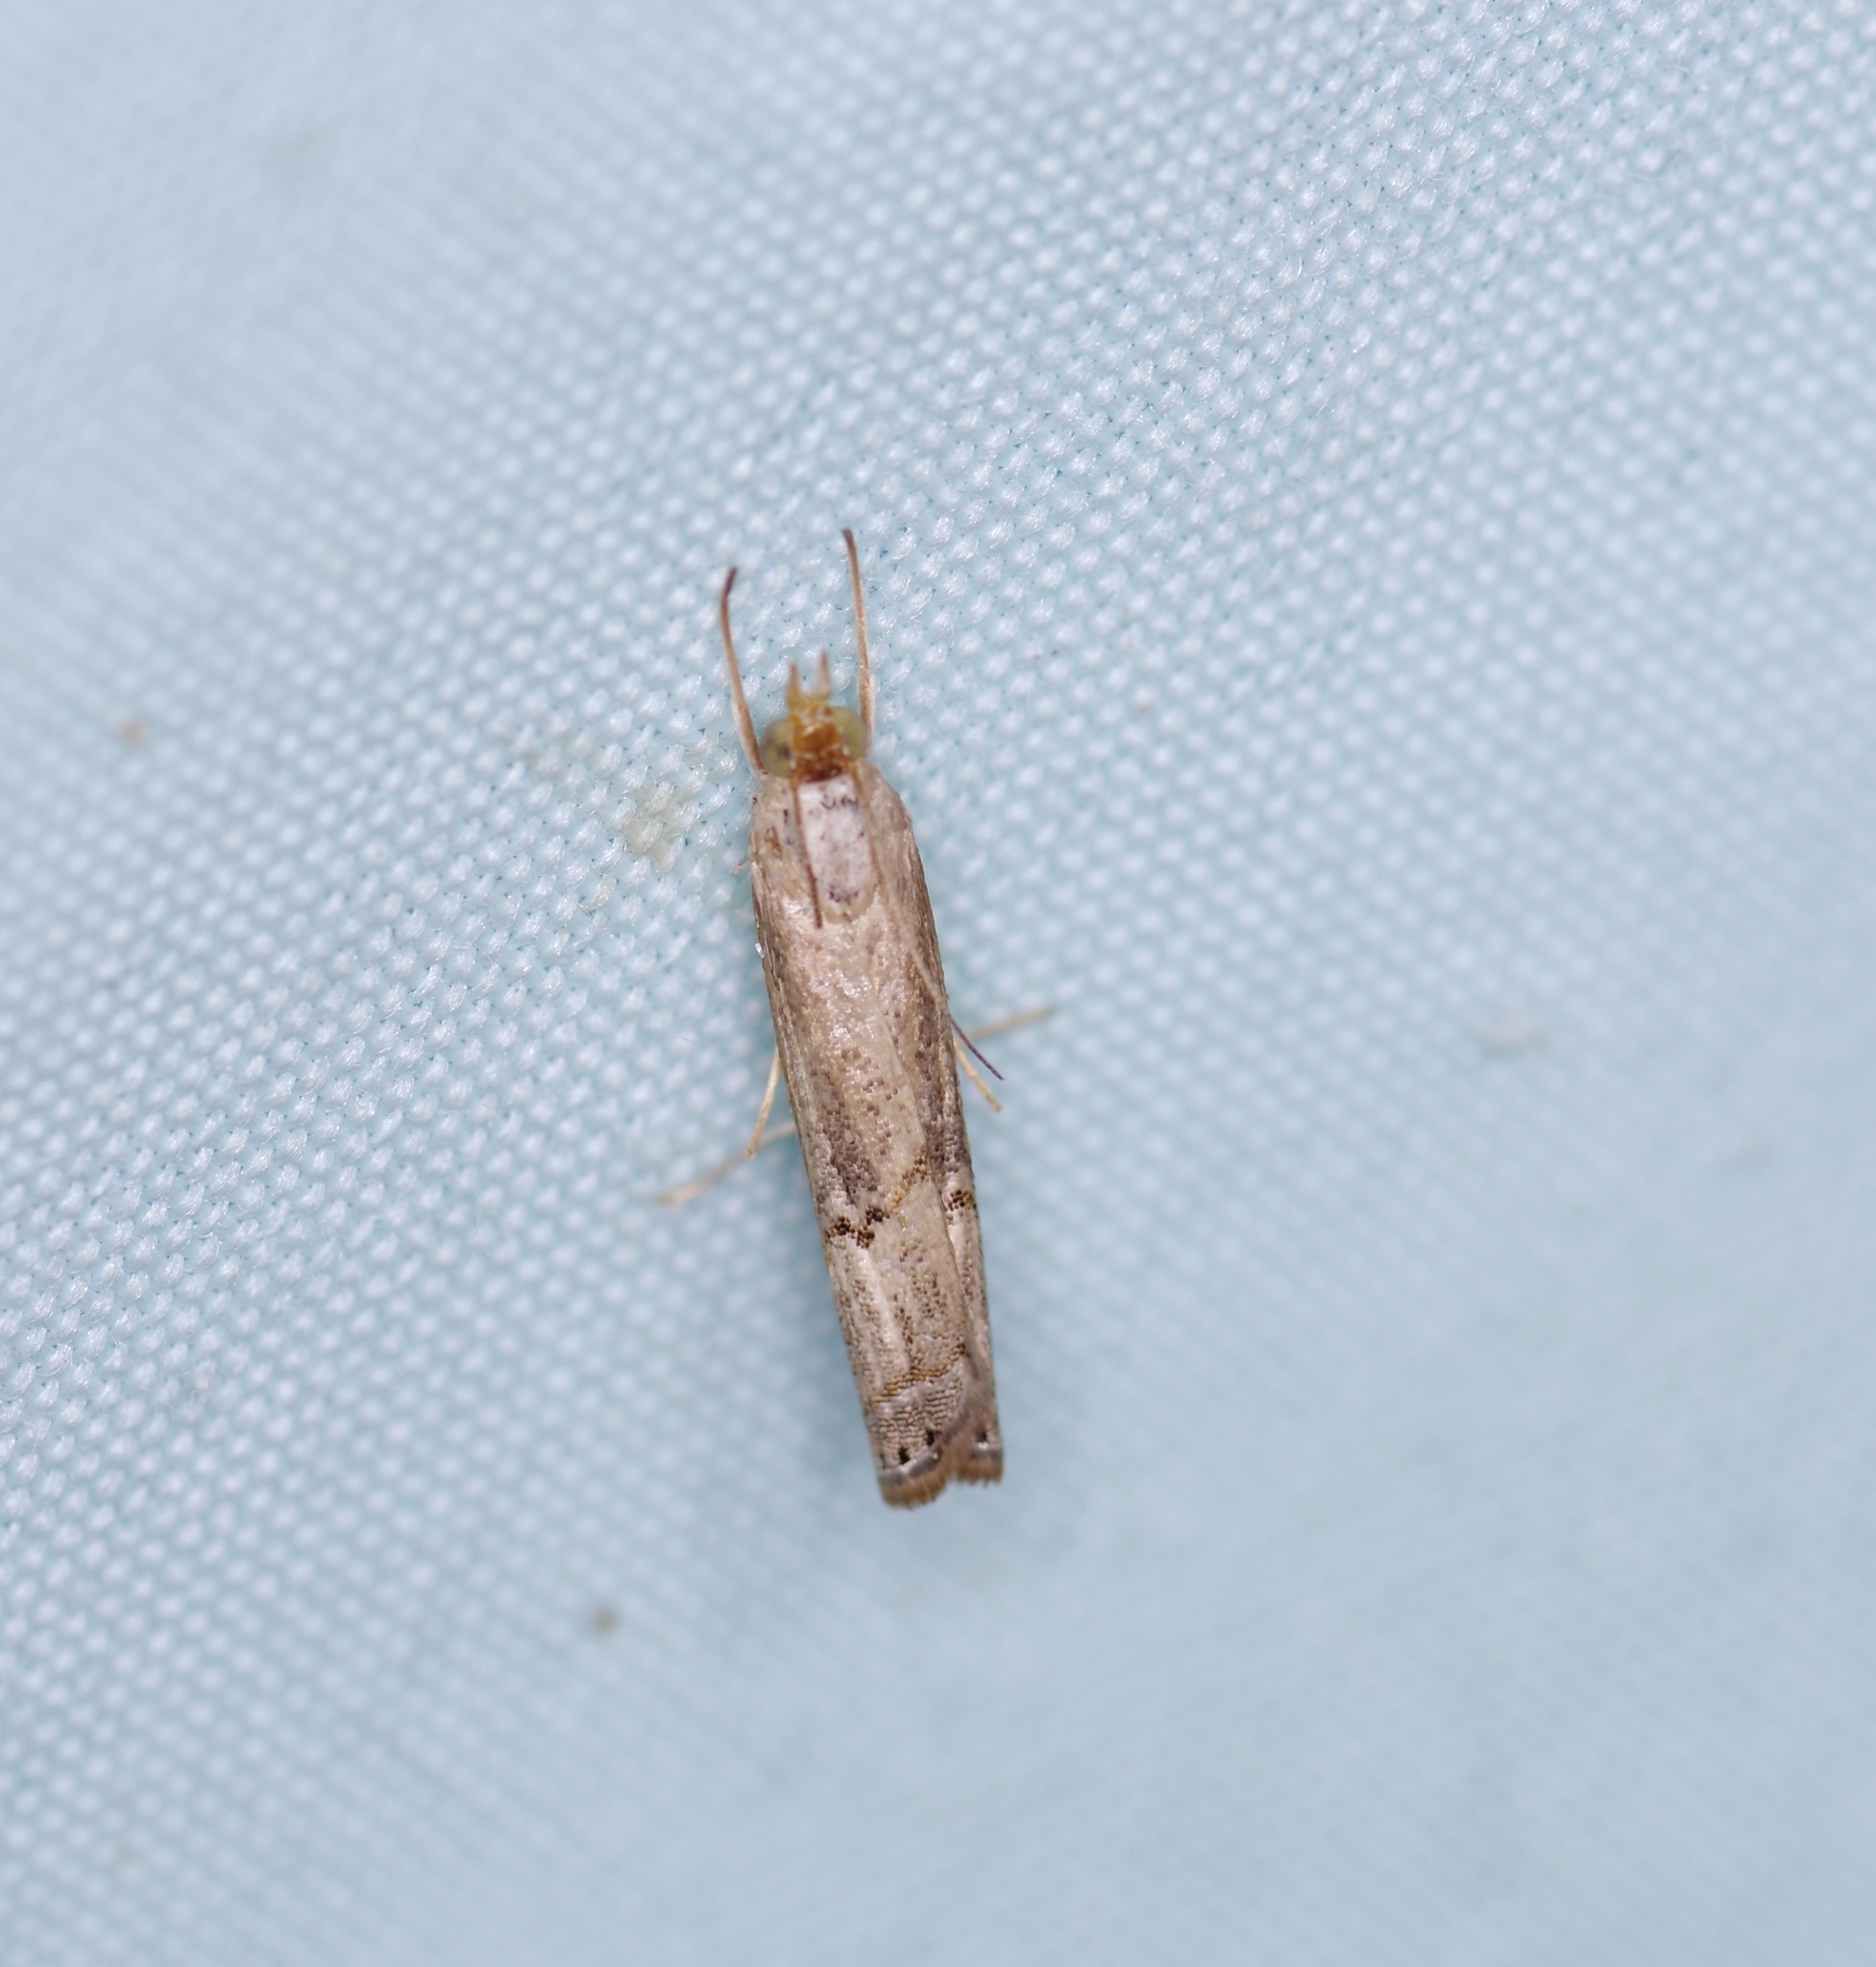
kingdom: Animalia
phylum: Arthropoda
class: Insecta
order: Lepidoptera
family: Crambidae
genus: Parapediasia
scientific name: Parapediasia teterellus
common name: Bluegrass webworm moth
